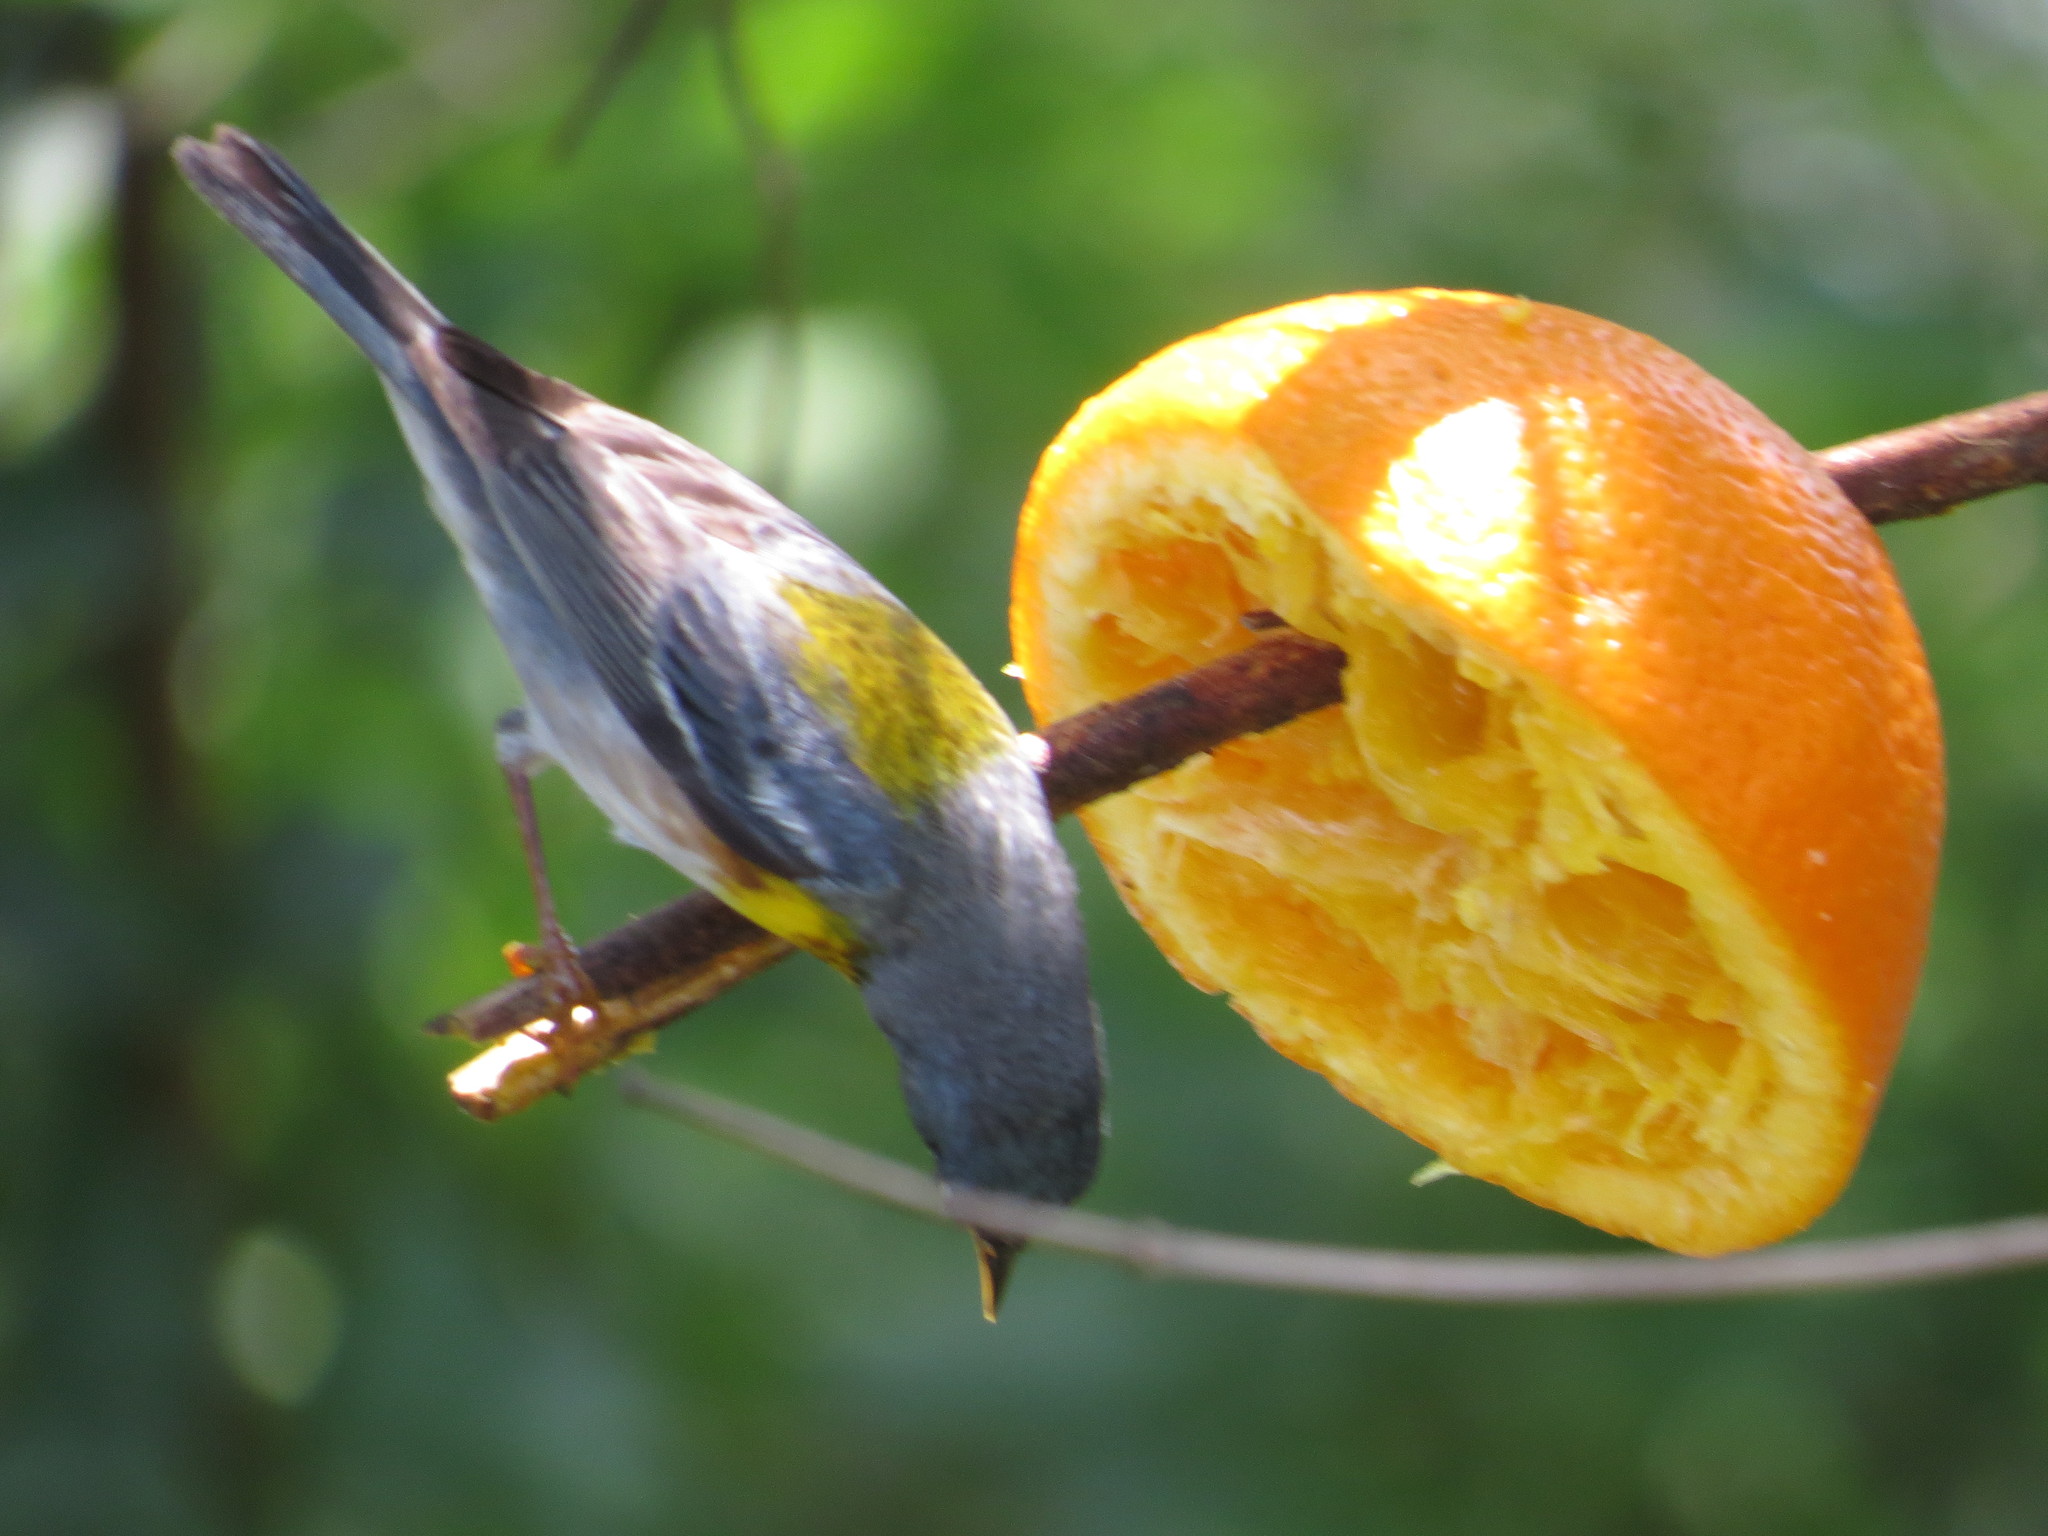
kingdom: Animalia
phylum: Chordata
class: Aves
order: Passeriformes
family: Parulidae
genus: Setophaga
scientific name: Setophaga americana
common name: Northern parula
